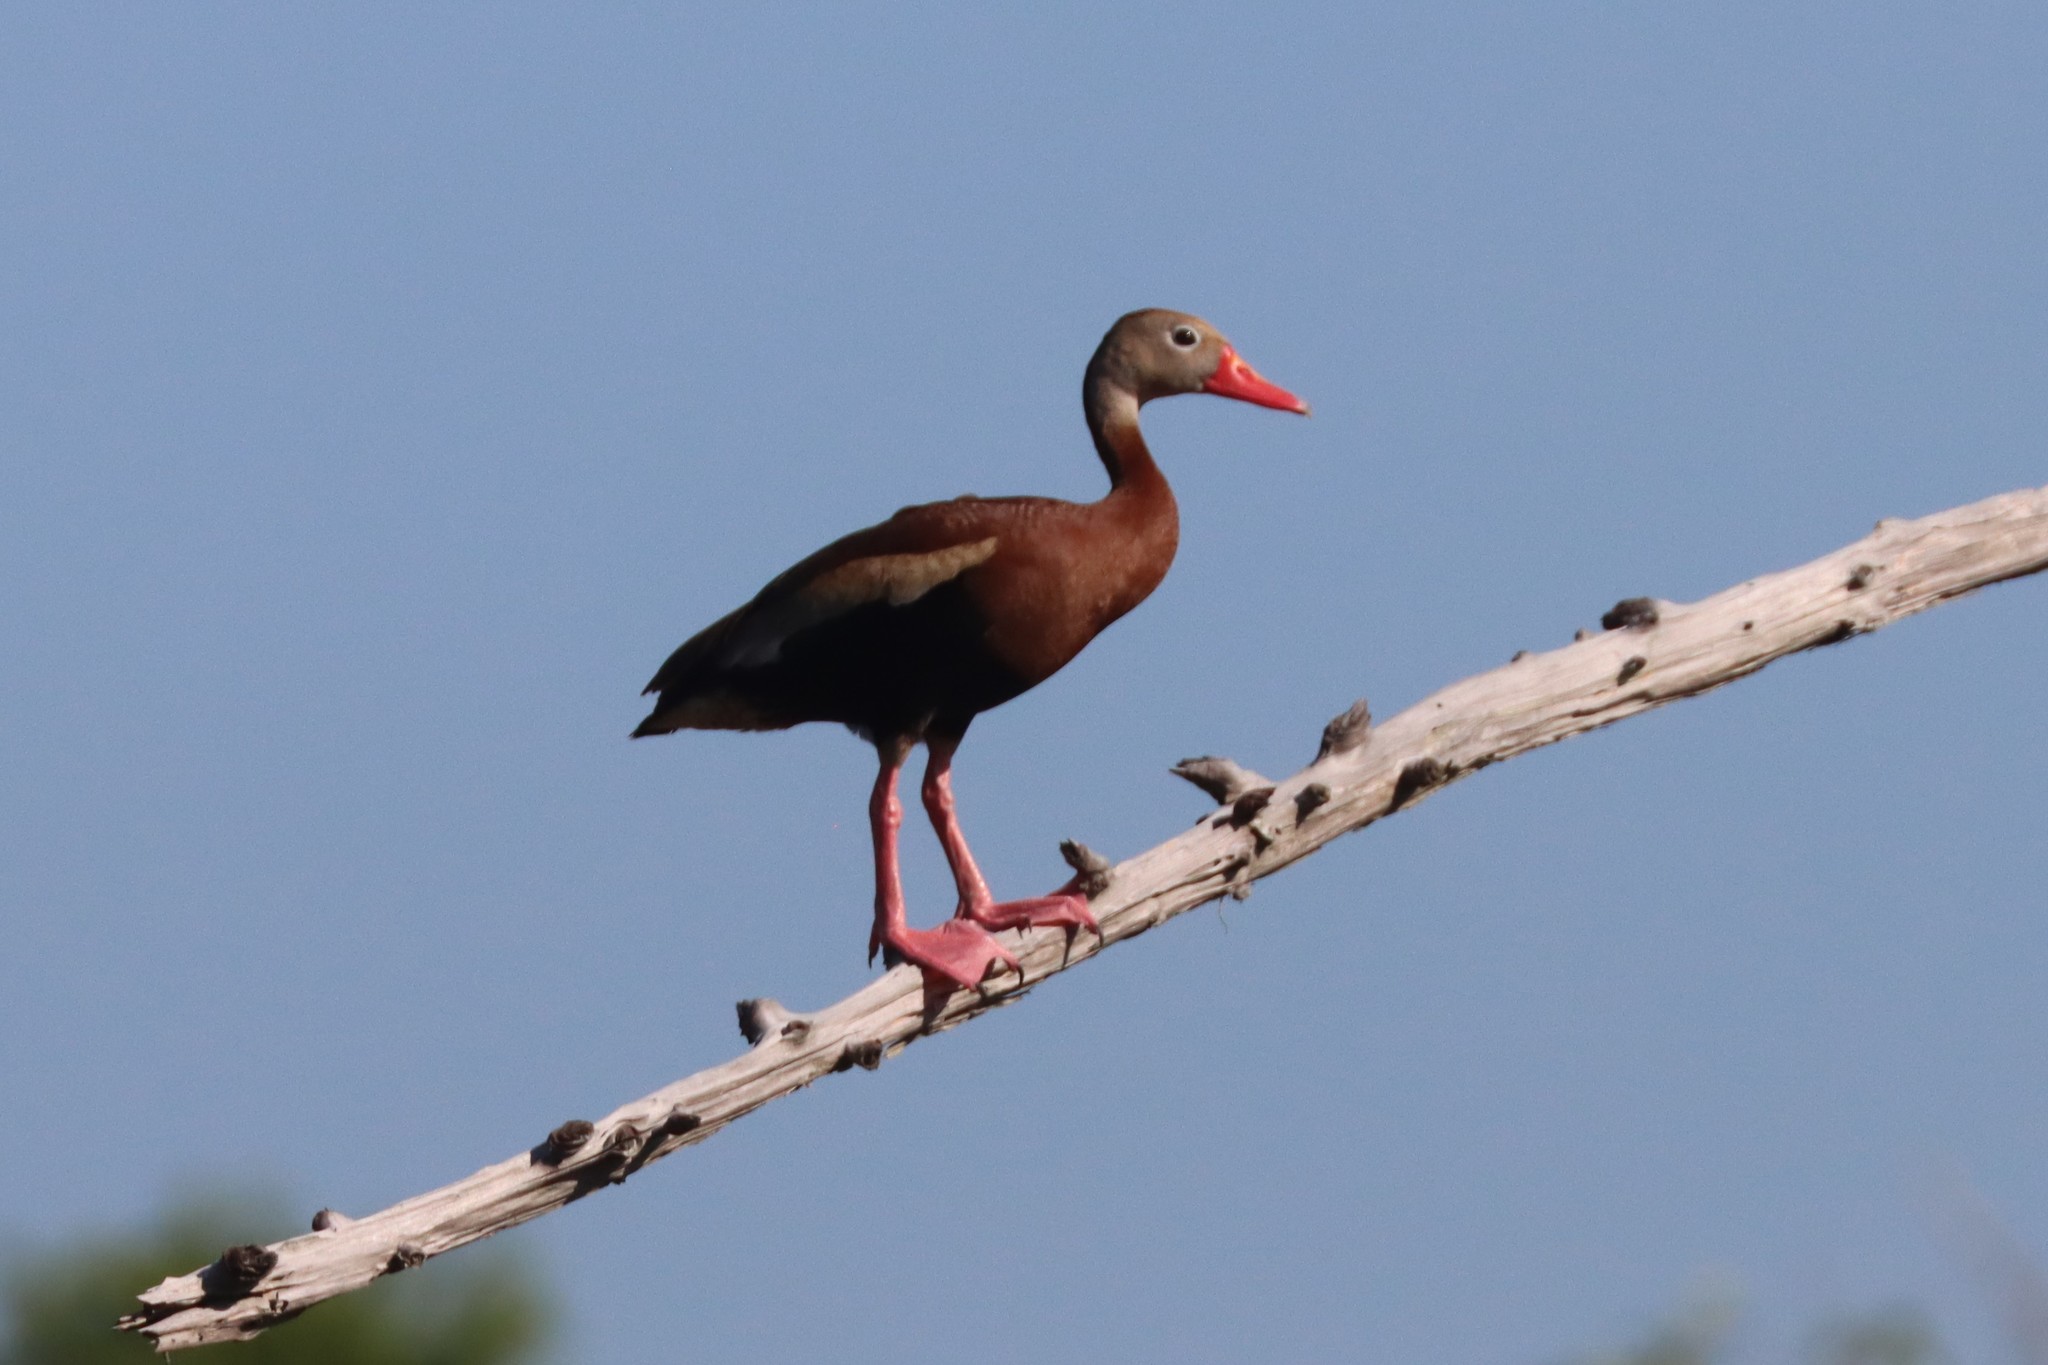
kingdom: Animalia
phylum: Chordata
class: Aves
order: Anseriformes
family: Anatidae
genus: Dendrocygna
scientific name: Dendrocygna autumnalis
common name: Black-bellied whistling duck
